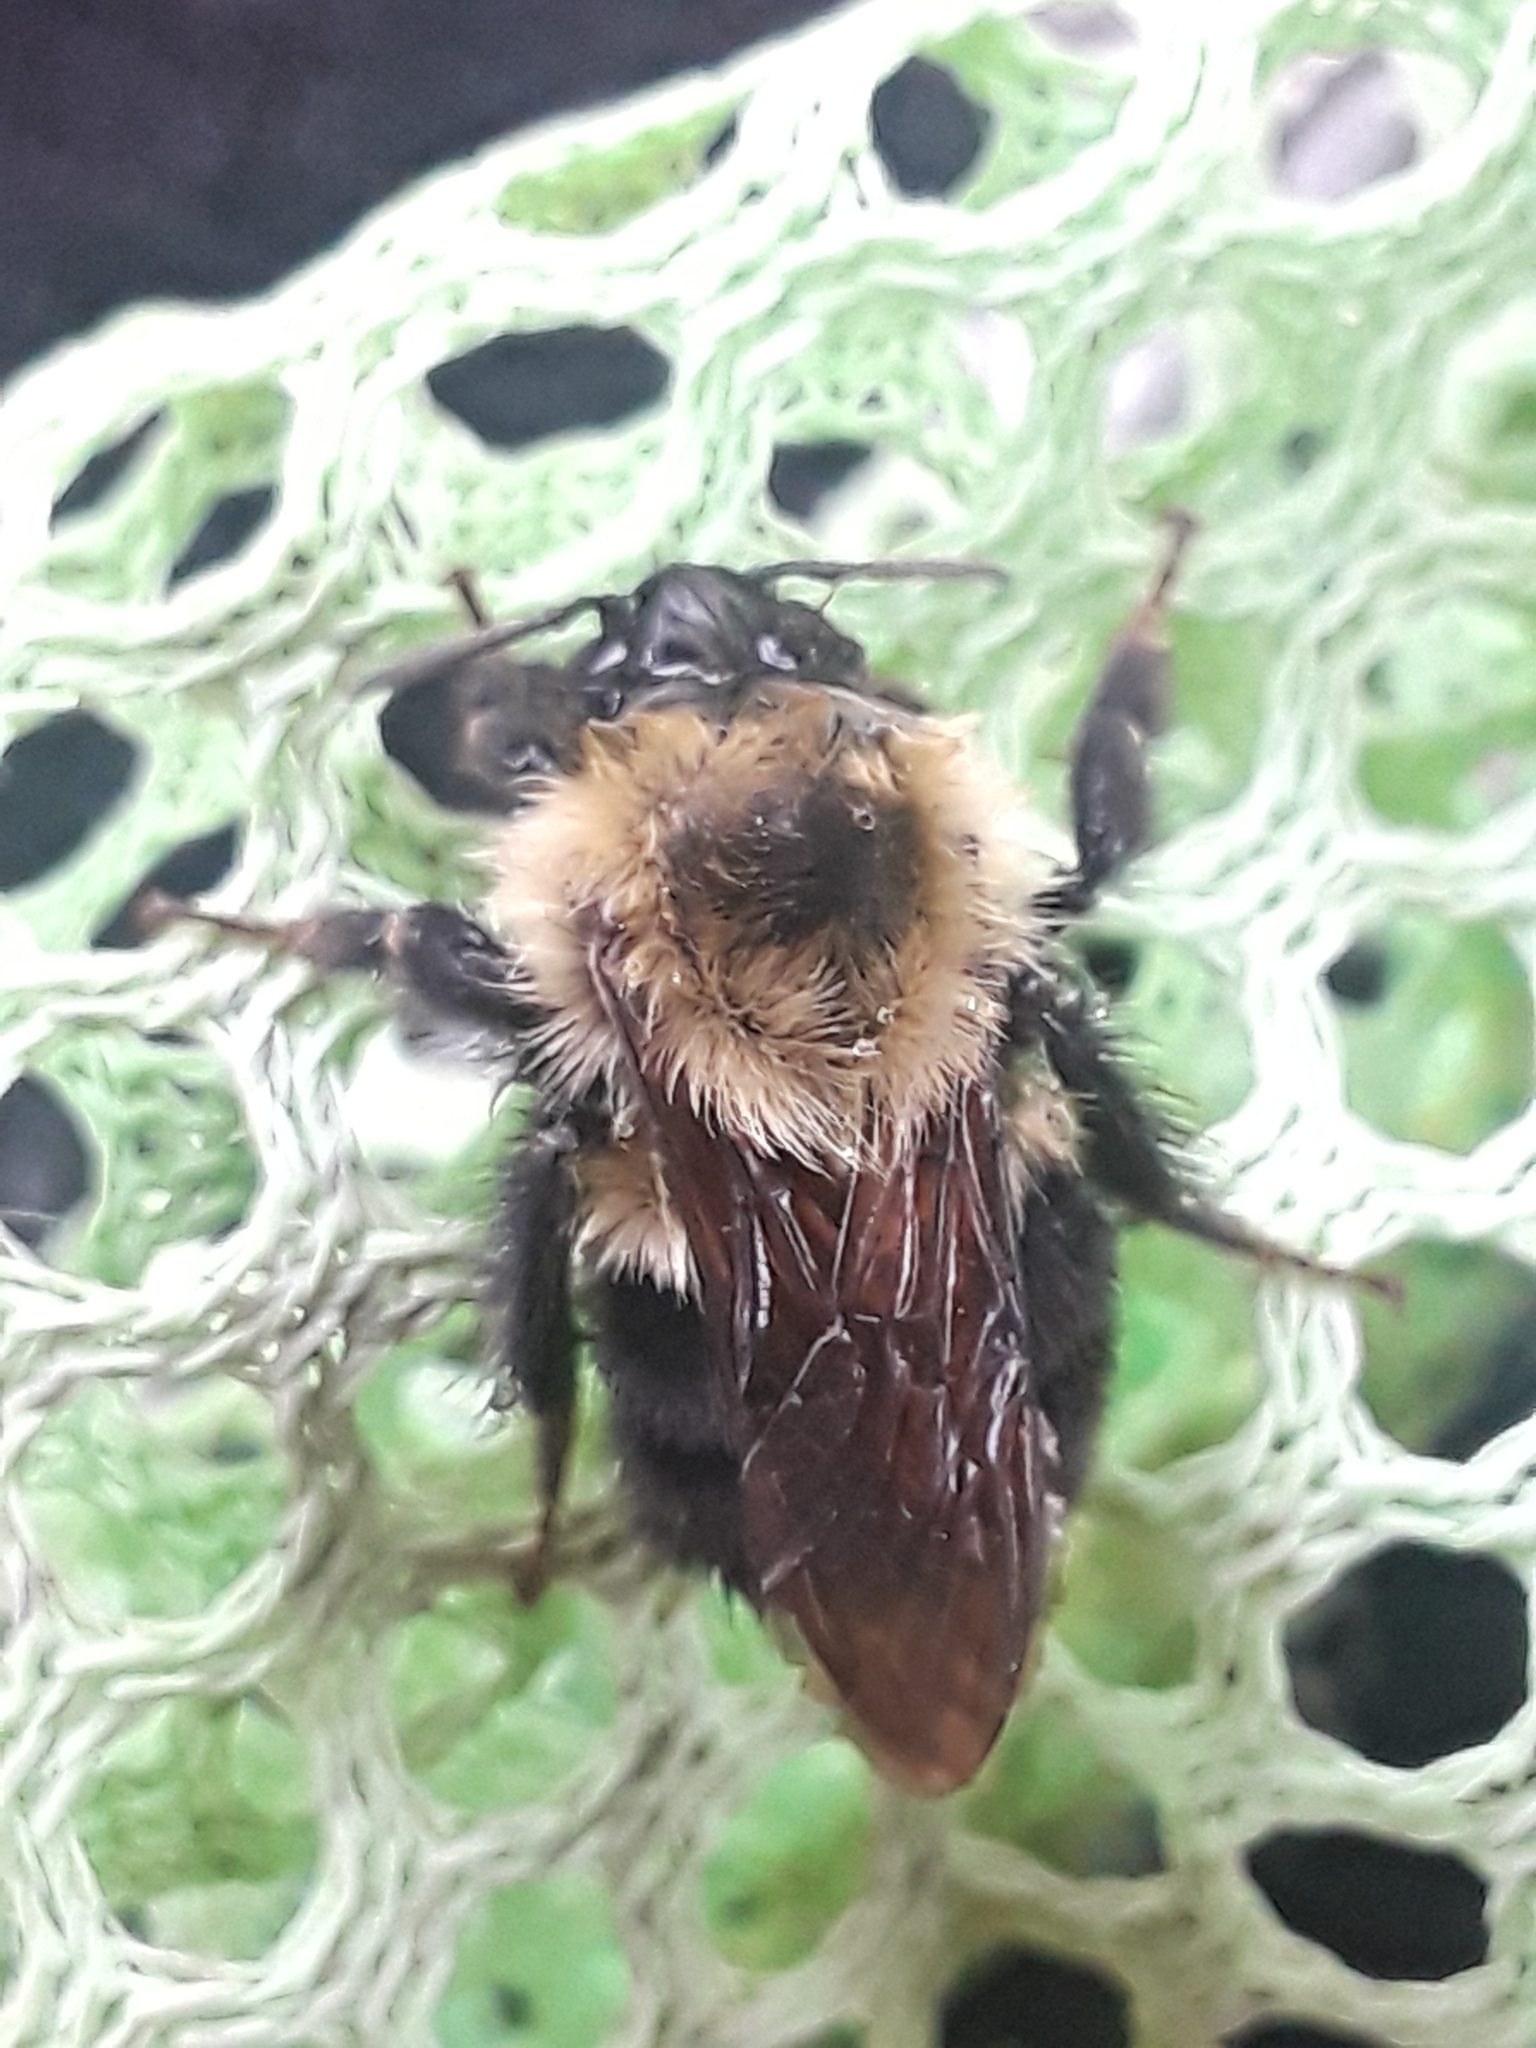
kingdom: Animalia
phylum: Arthropoda
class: Insecta
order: Hymenoptera
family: Apidae
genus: Bombus
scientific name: Bombus bimaculatus
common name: Two-spotted bumble bee
